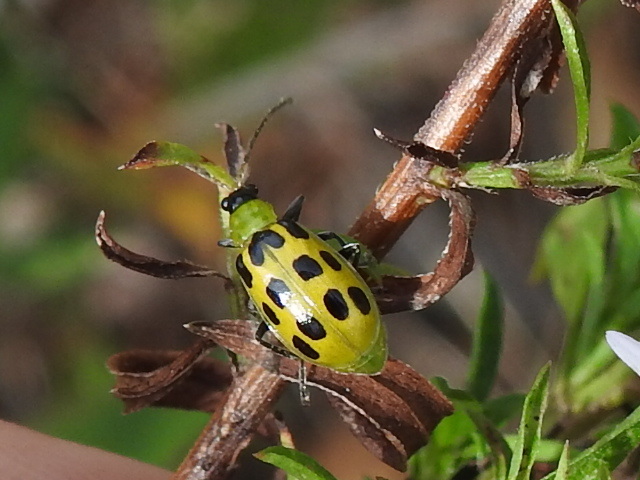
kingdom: Animalia
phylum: Arthropoda
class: Insecta
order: Coleoptera
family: Chrysomelidae
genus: Diabrotica
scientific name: Diabrotica undecimpunctata
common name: Spotted cucumber beetle
